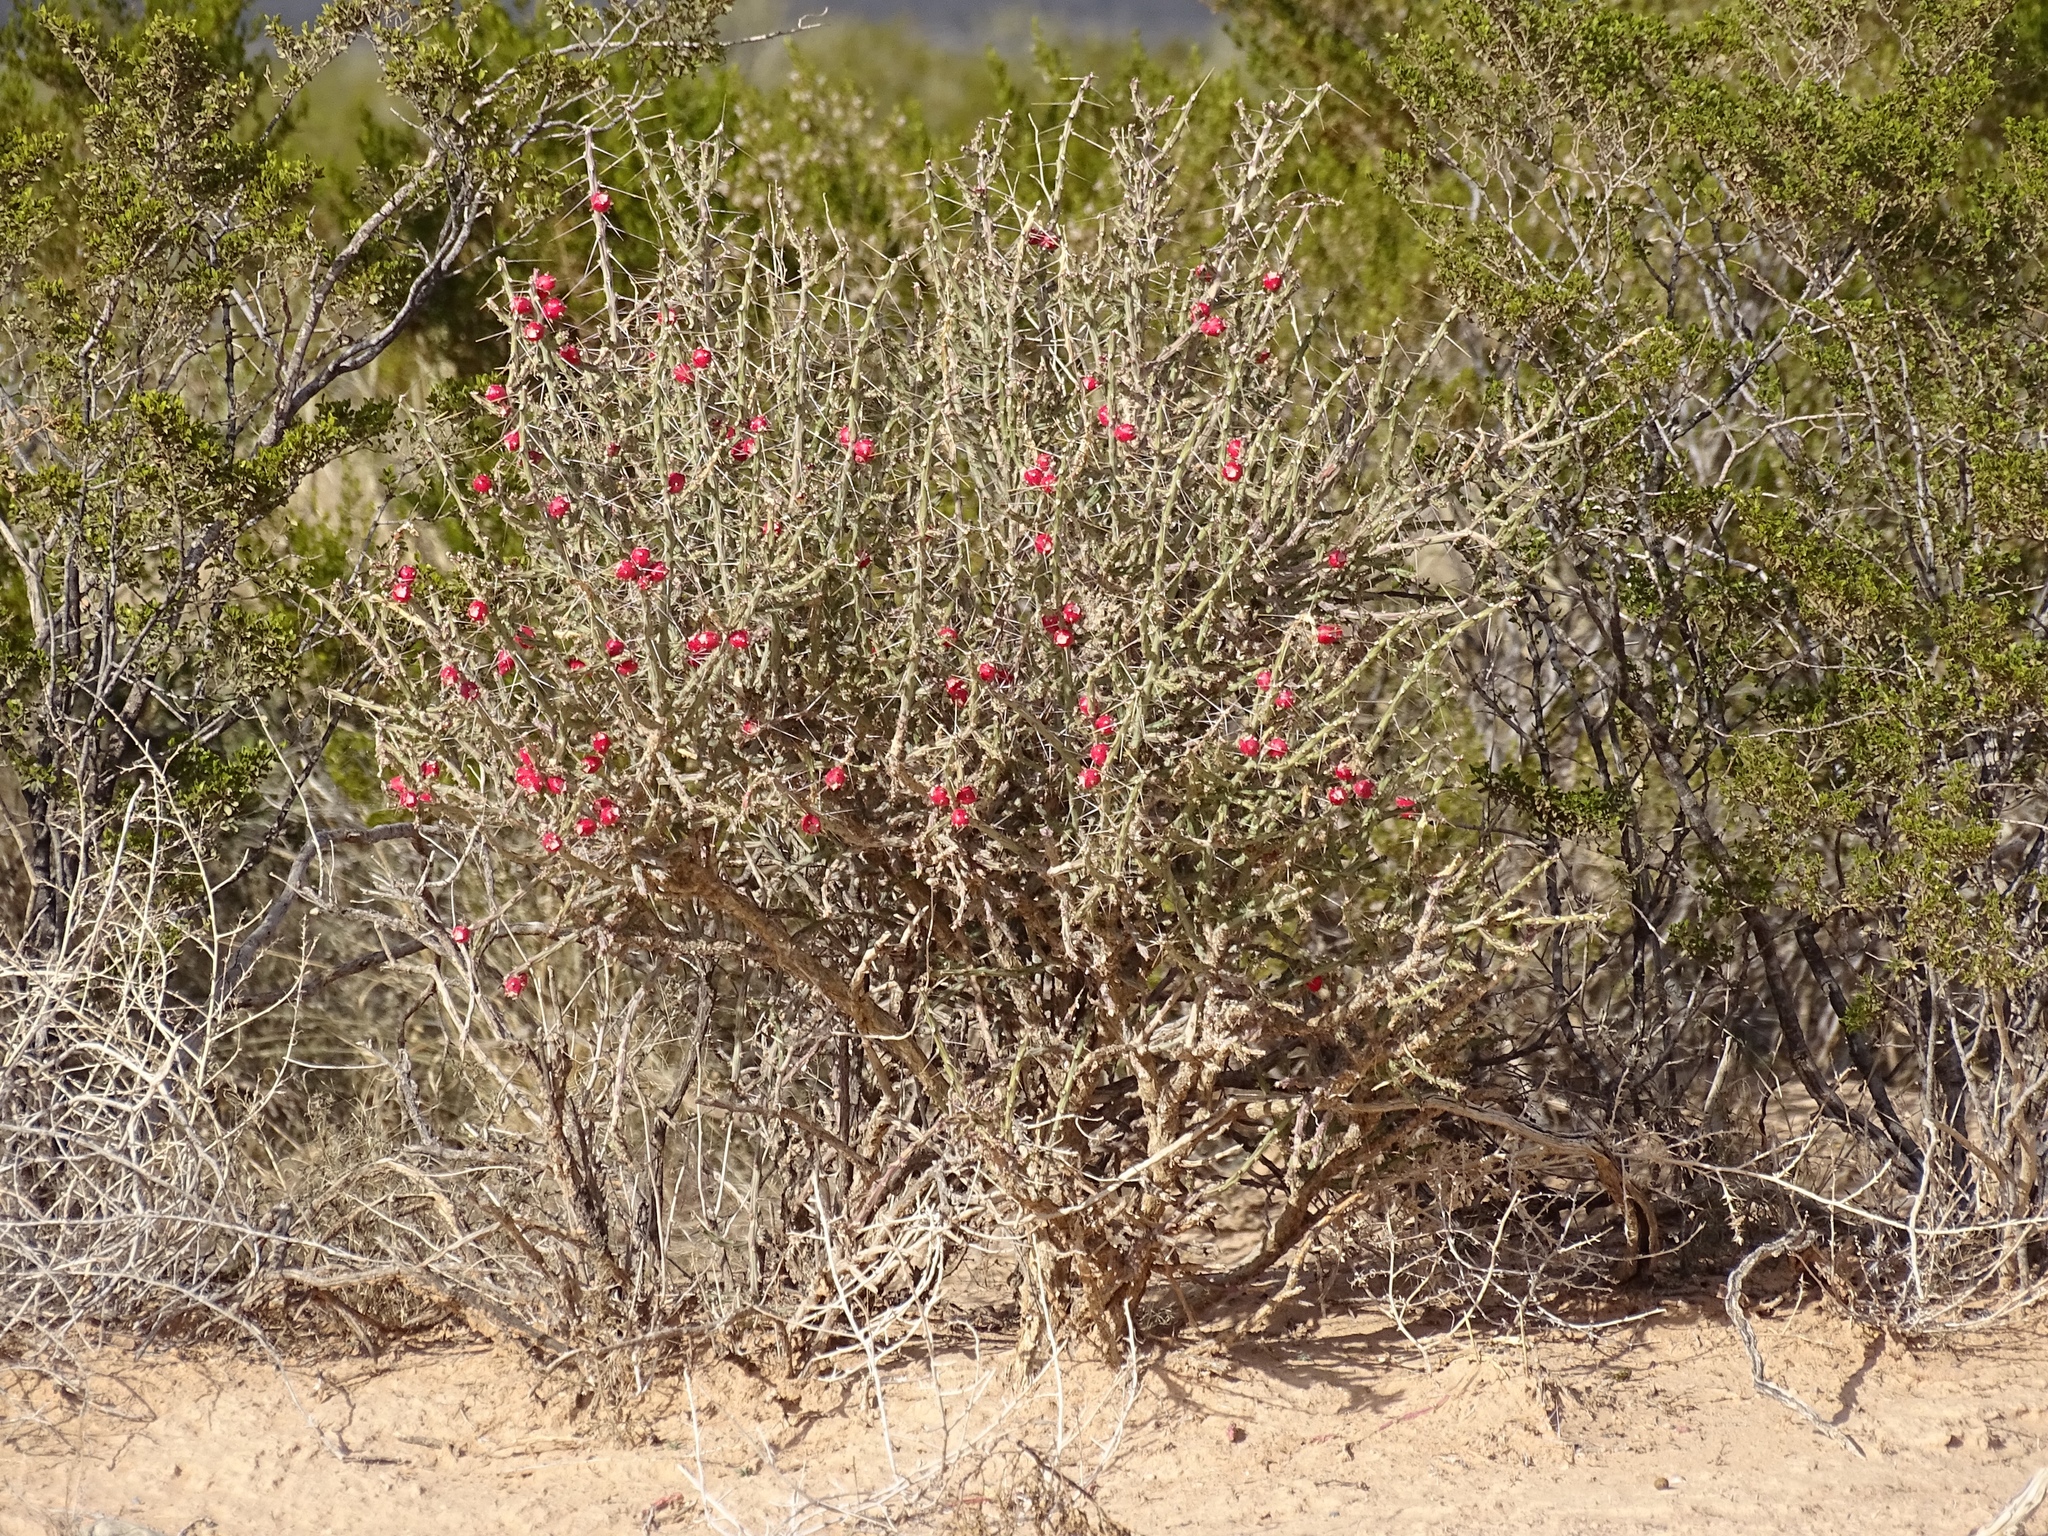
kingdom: Plantae
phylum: Tracheophyta
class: Magnoliopsida
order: Caryophyllales
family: Cactaceae
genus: Cylindropuntia
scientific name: Cylindropuntia leptocaulis
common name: Christmas cactus
